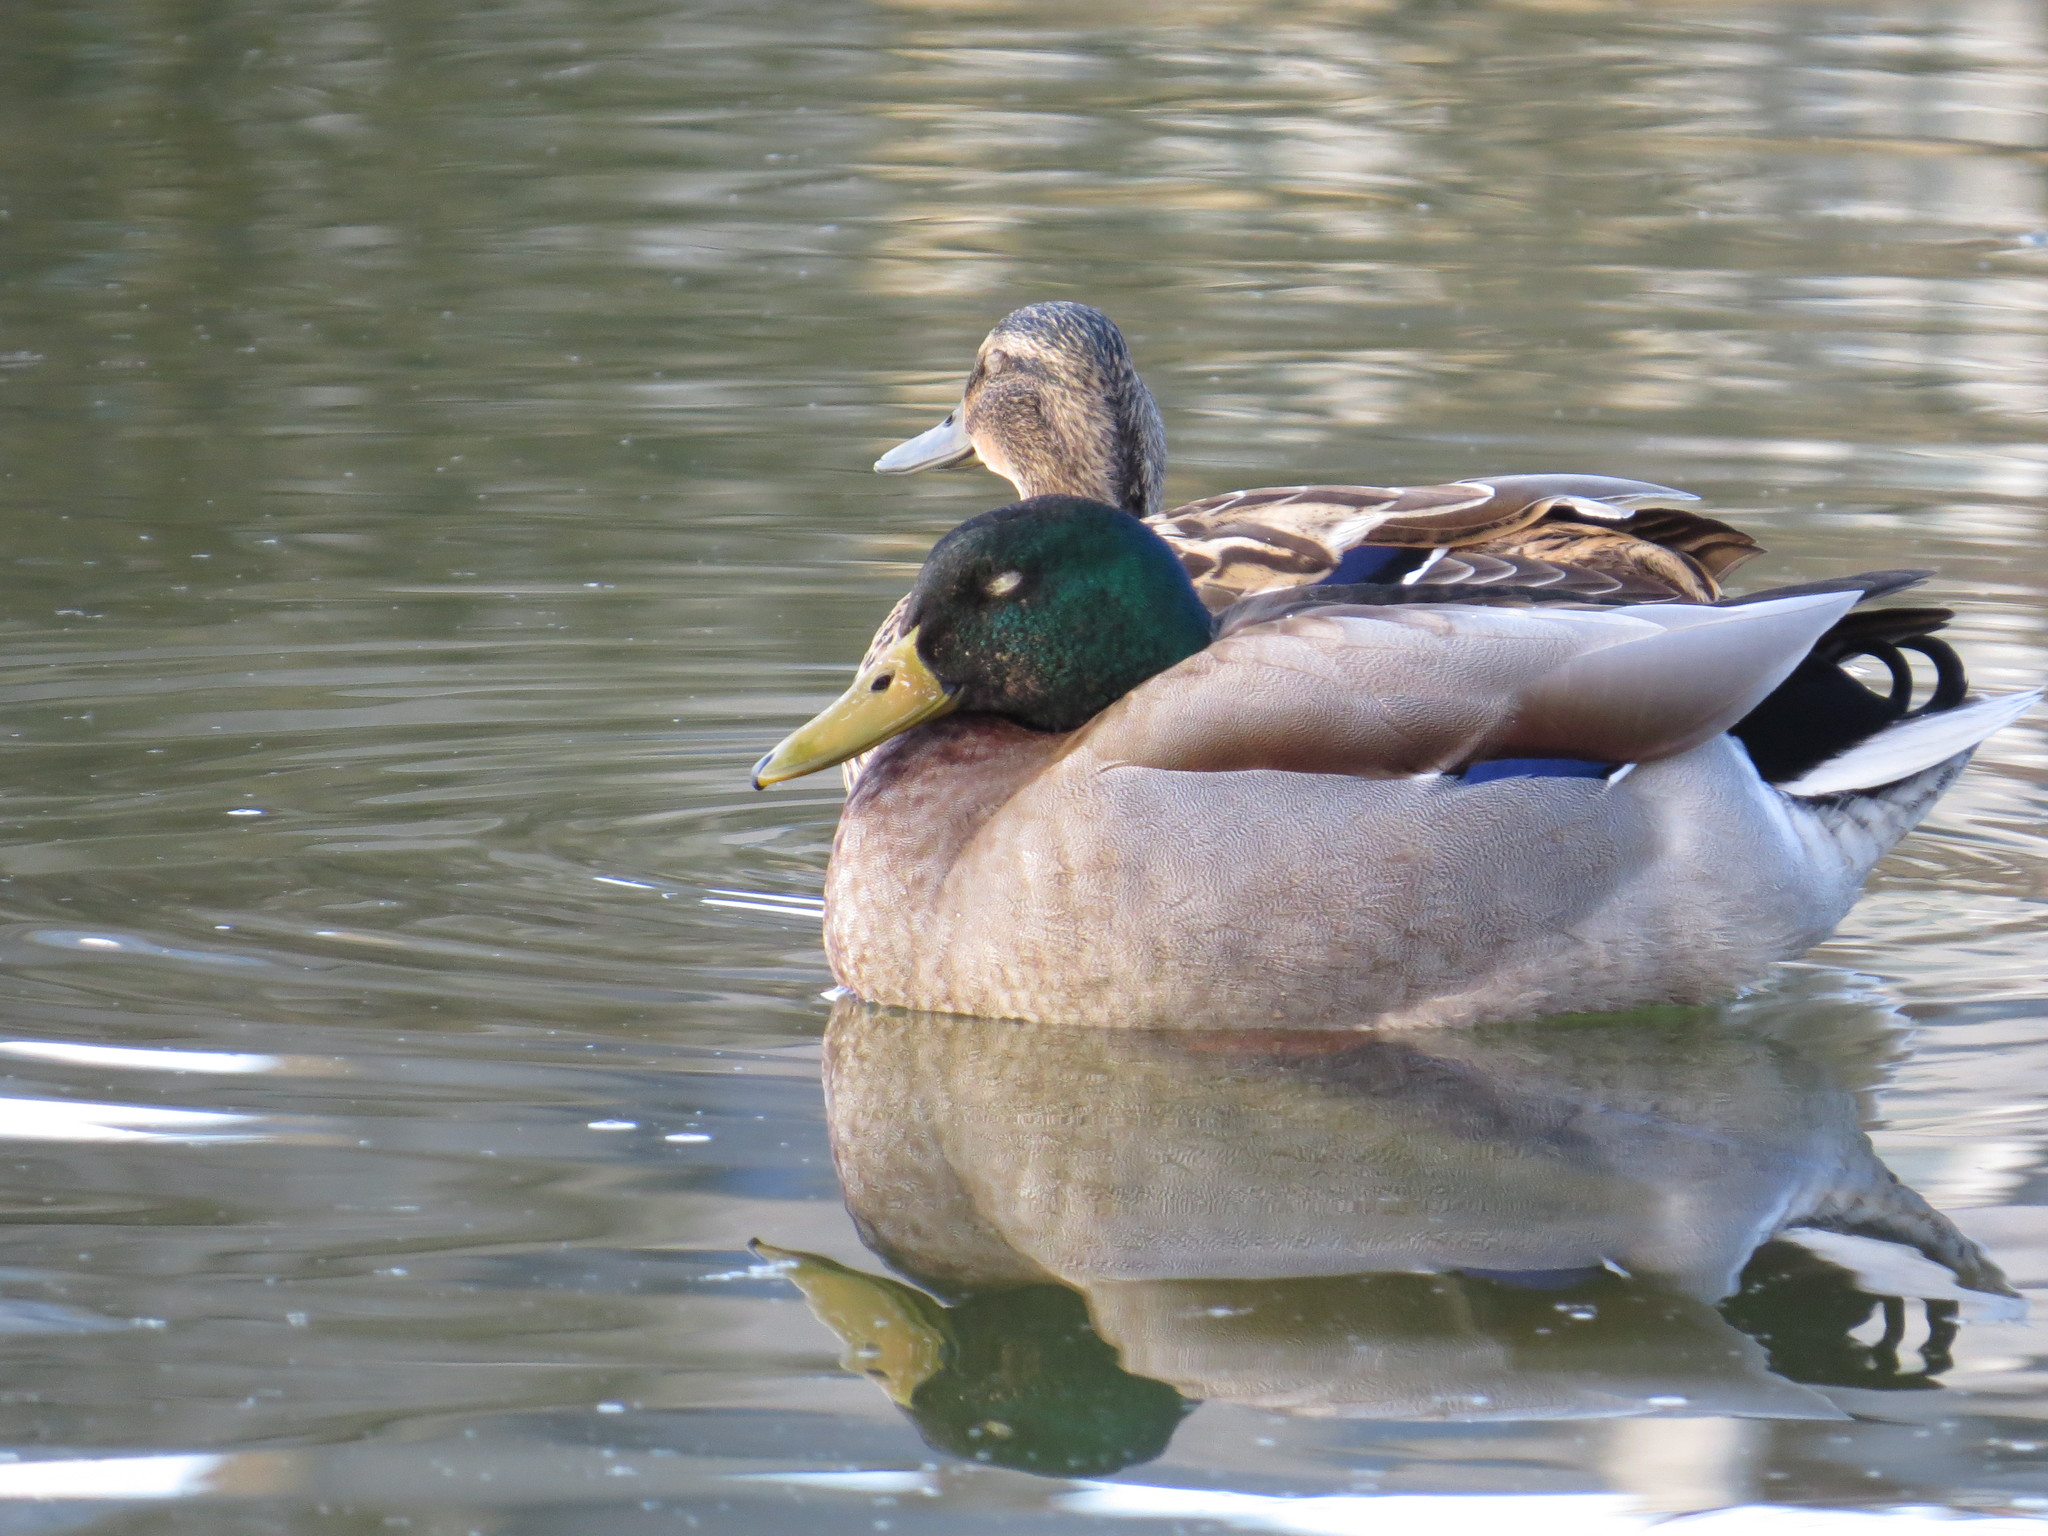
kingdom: Animalia
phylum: Chordata
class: Aves
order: Anseriformes
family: Anatidae
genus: Anas
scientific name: Anas platyrhynchos
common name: Mallard
